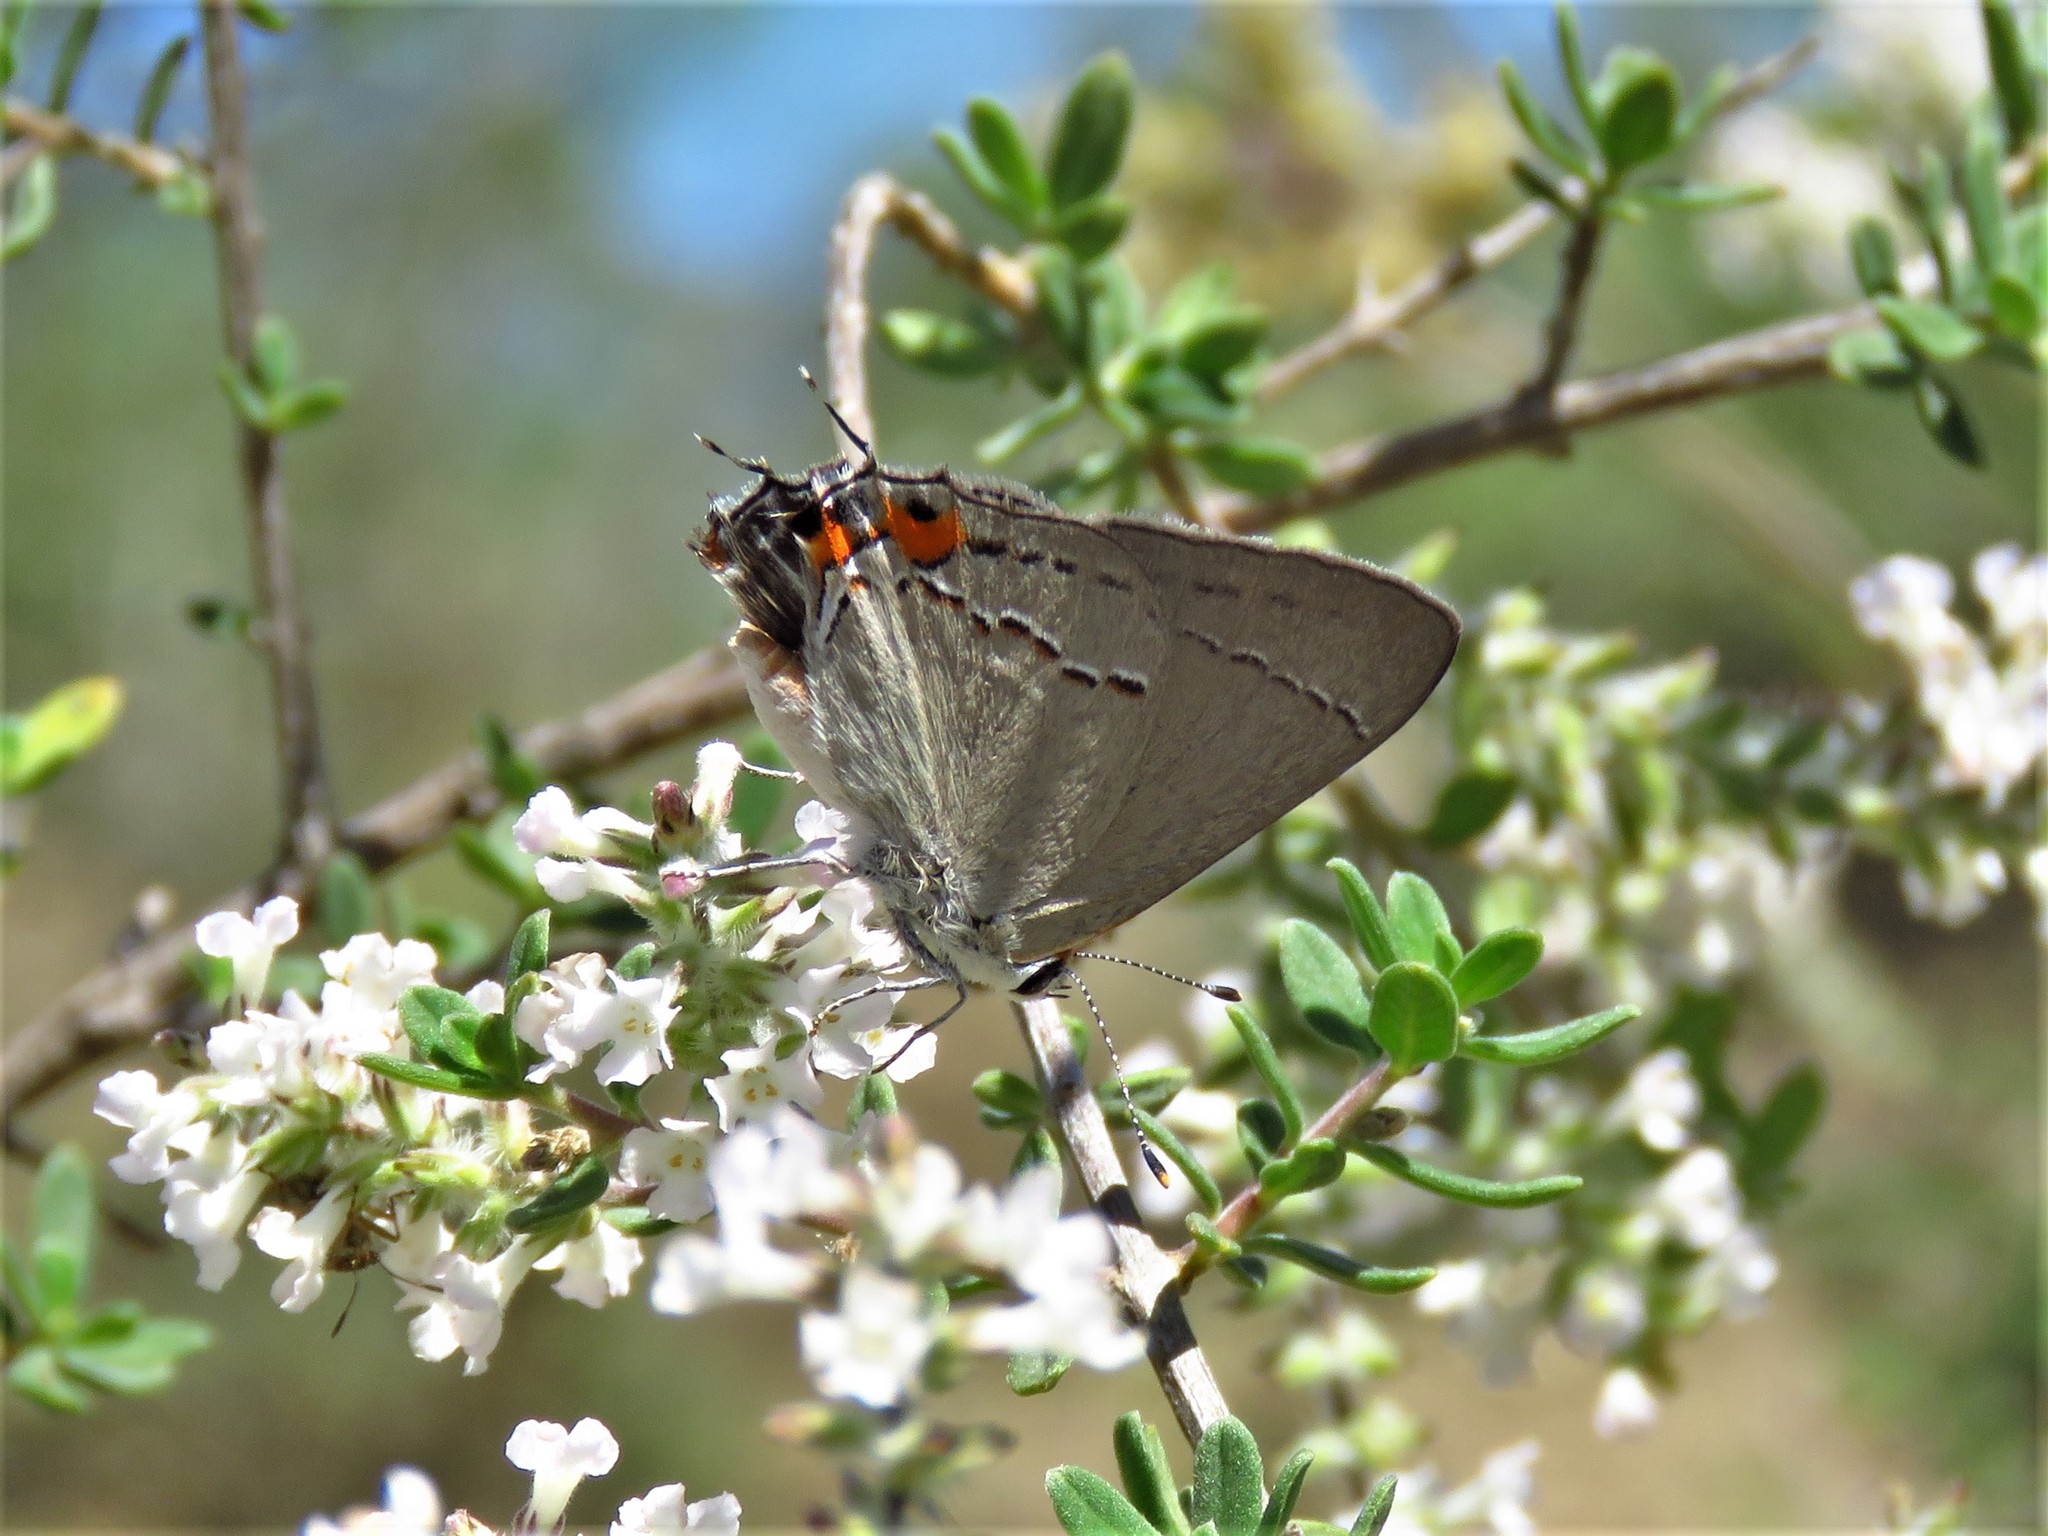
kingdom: Animalia
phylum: Arthropoda
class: Insecta
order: Lepidoptera
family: Lycaenidae
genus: Strymon
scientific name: Strymon melinus
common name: Gray hairstreak
